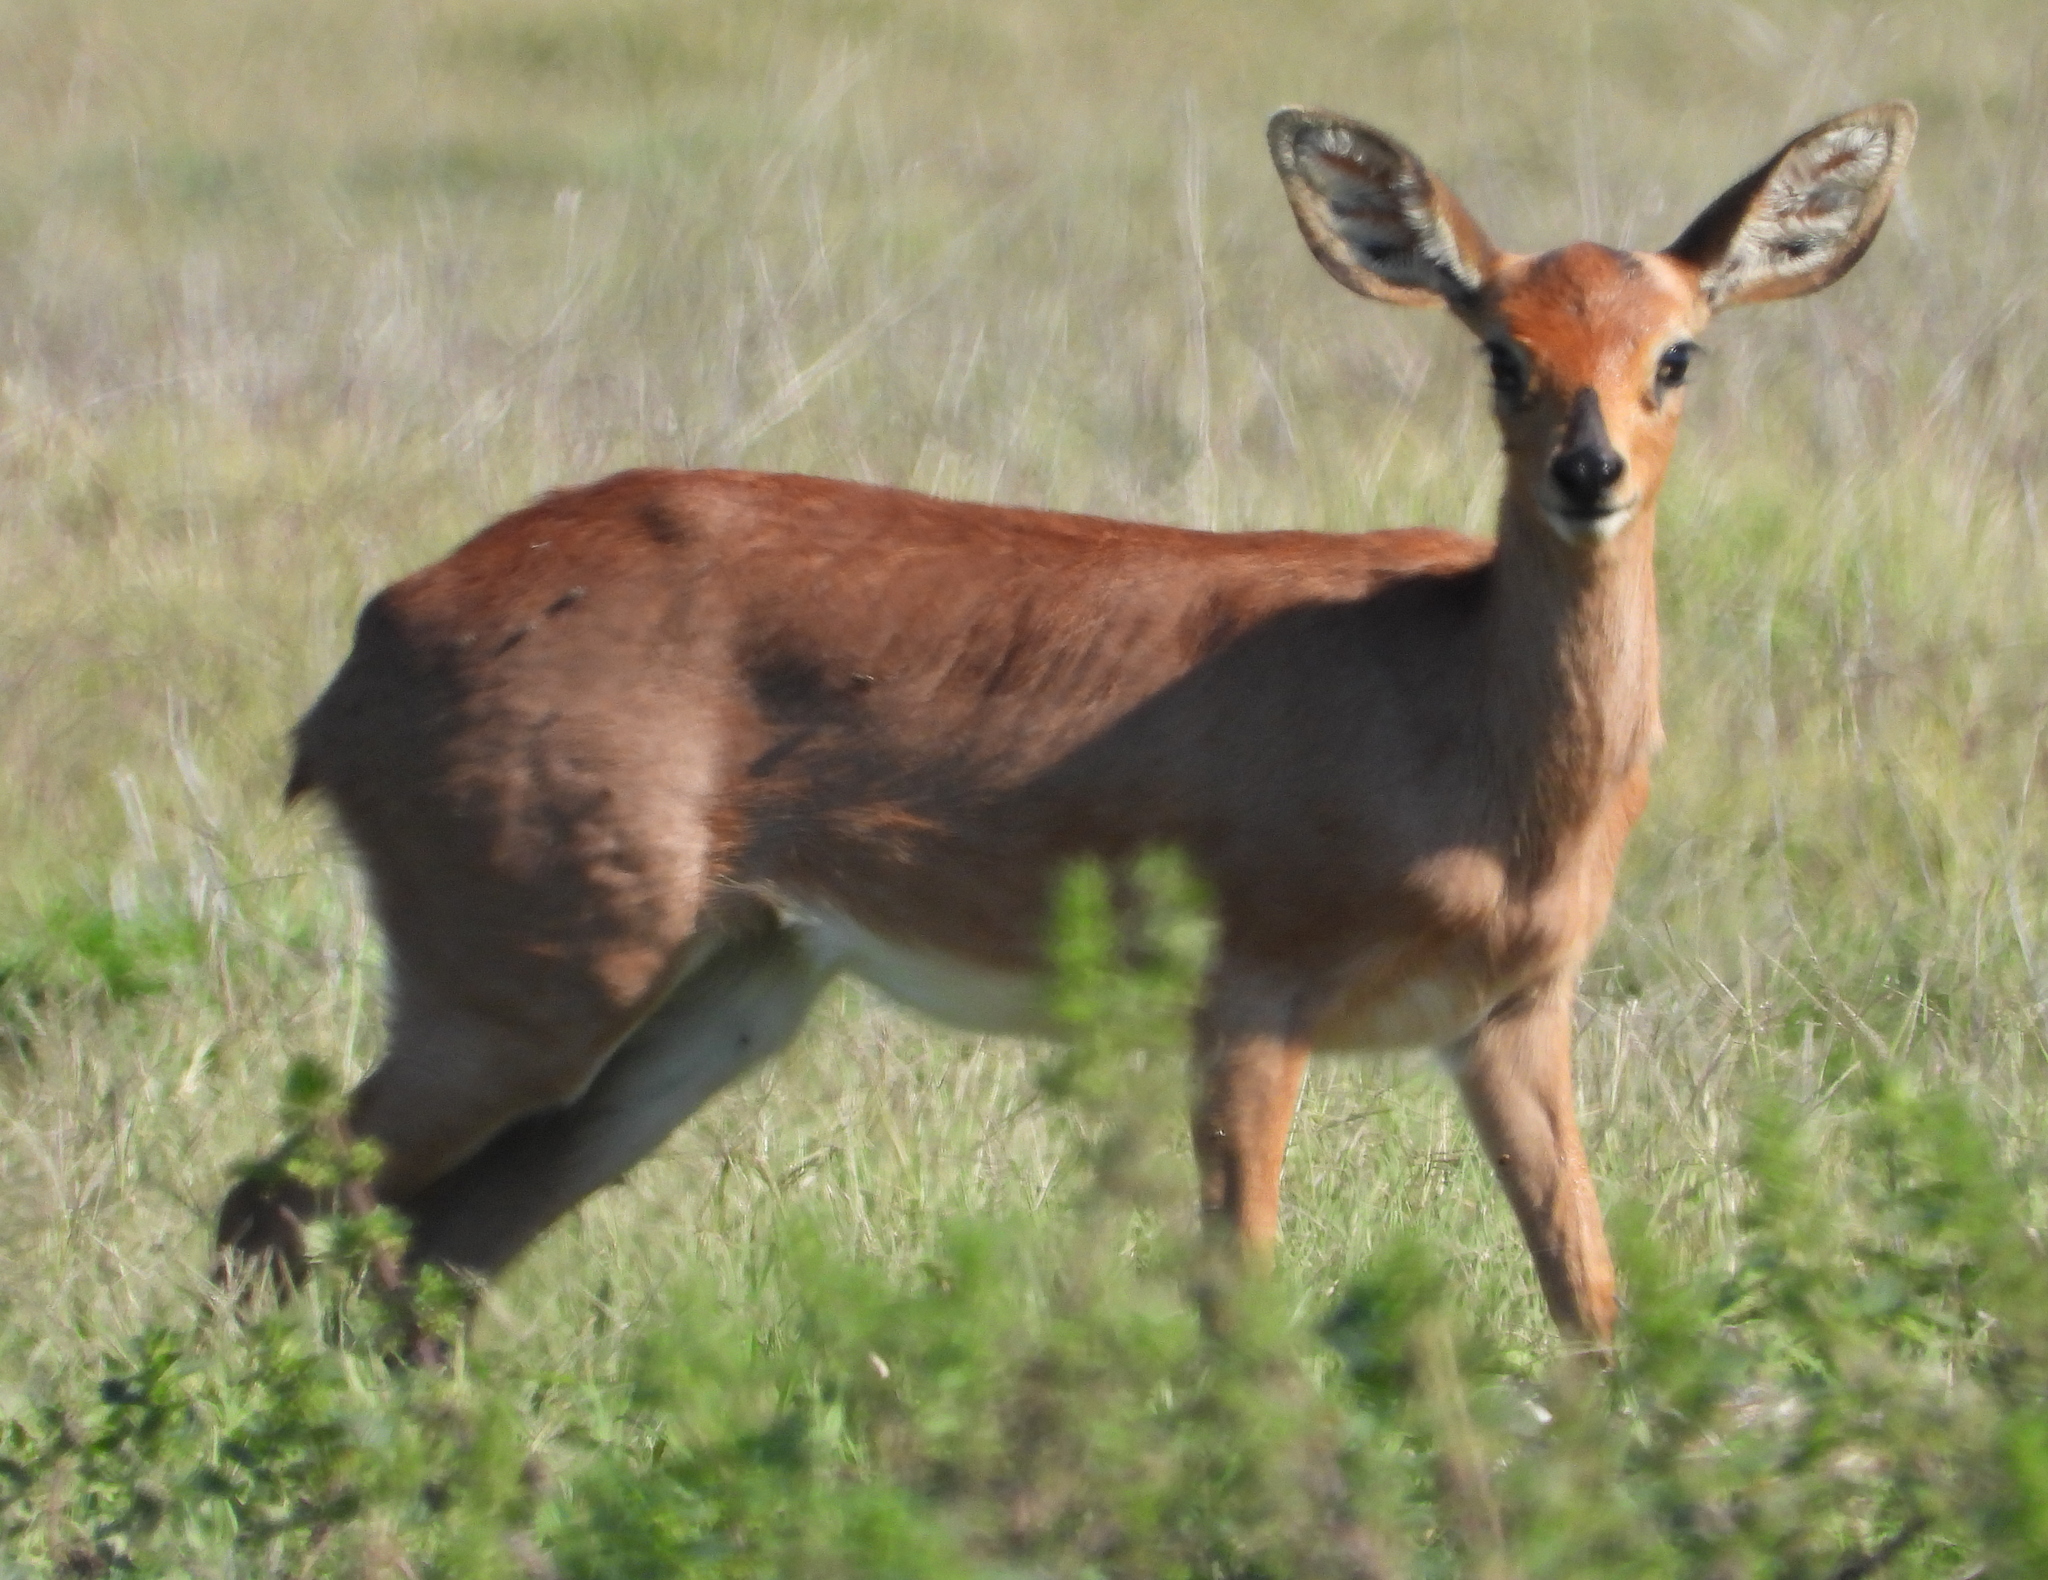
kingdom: Animalia
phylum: Chordata
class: Mammalia
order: Artiodactyla
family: Bovidae
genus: Raphicerus
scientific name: Raphicerus campestris
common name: Steenbok
